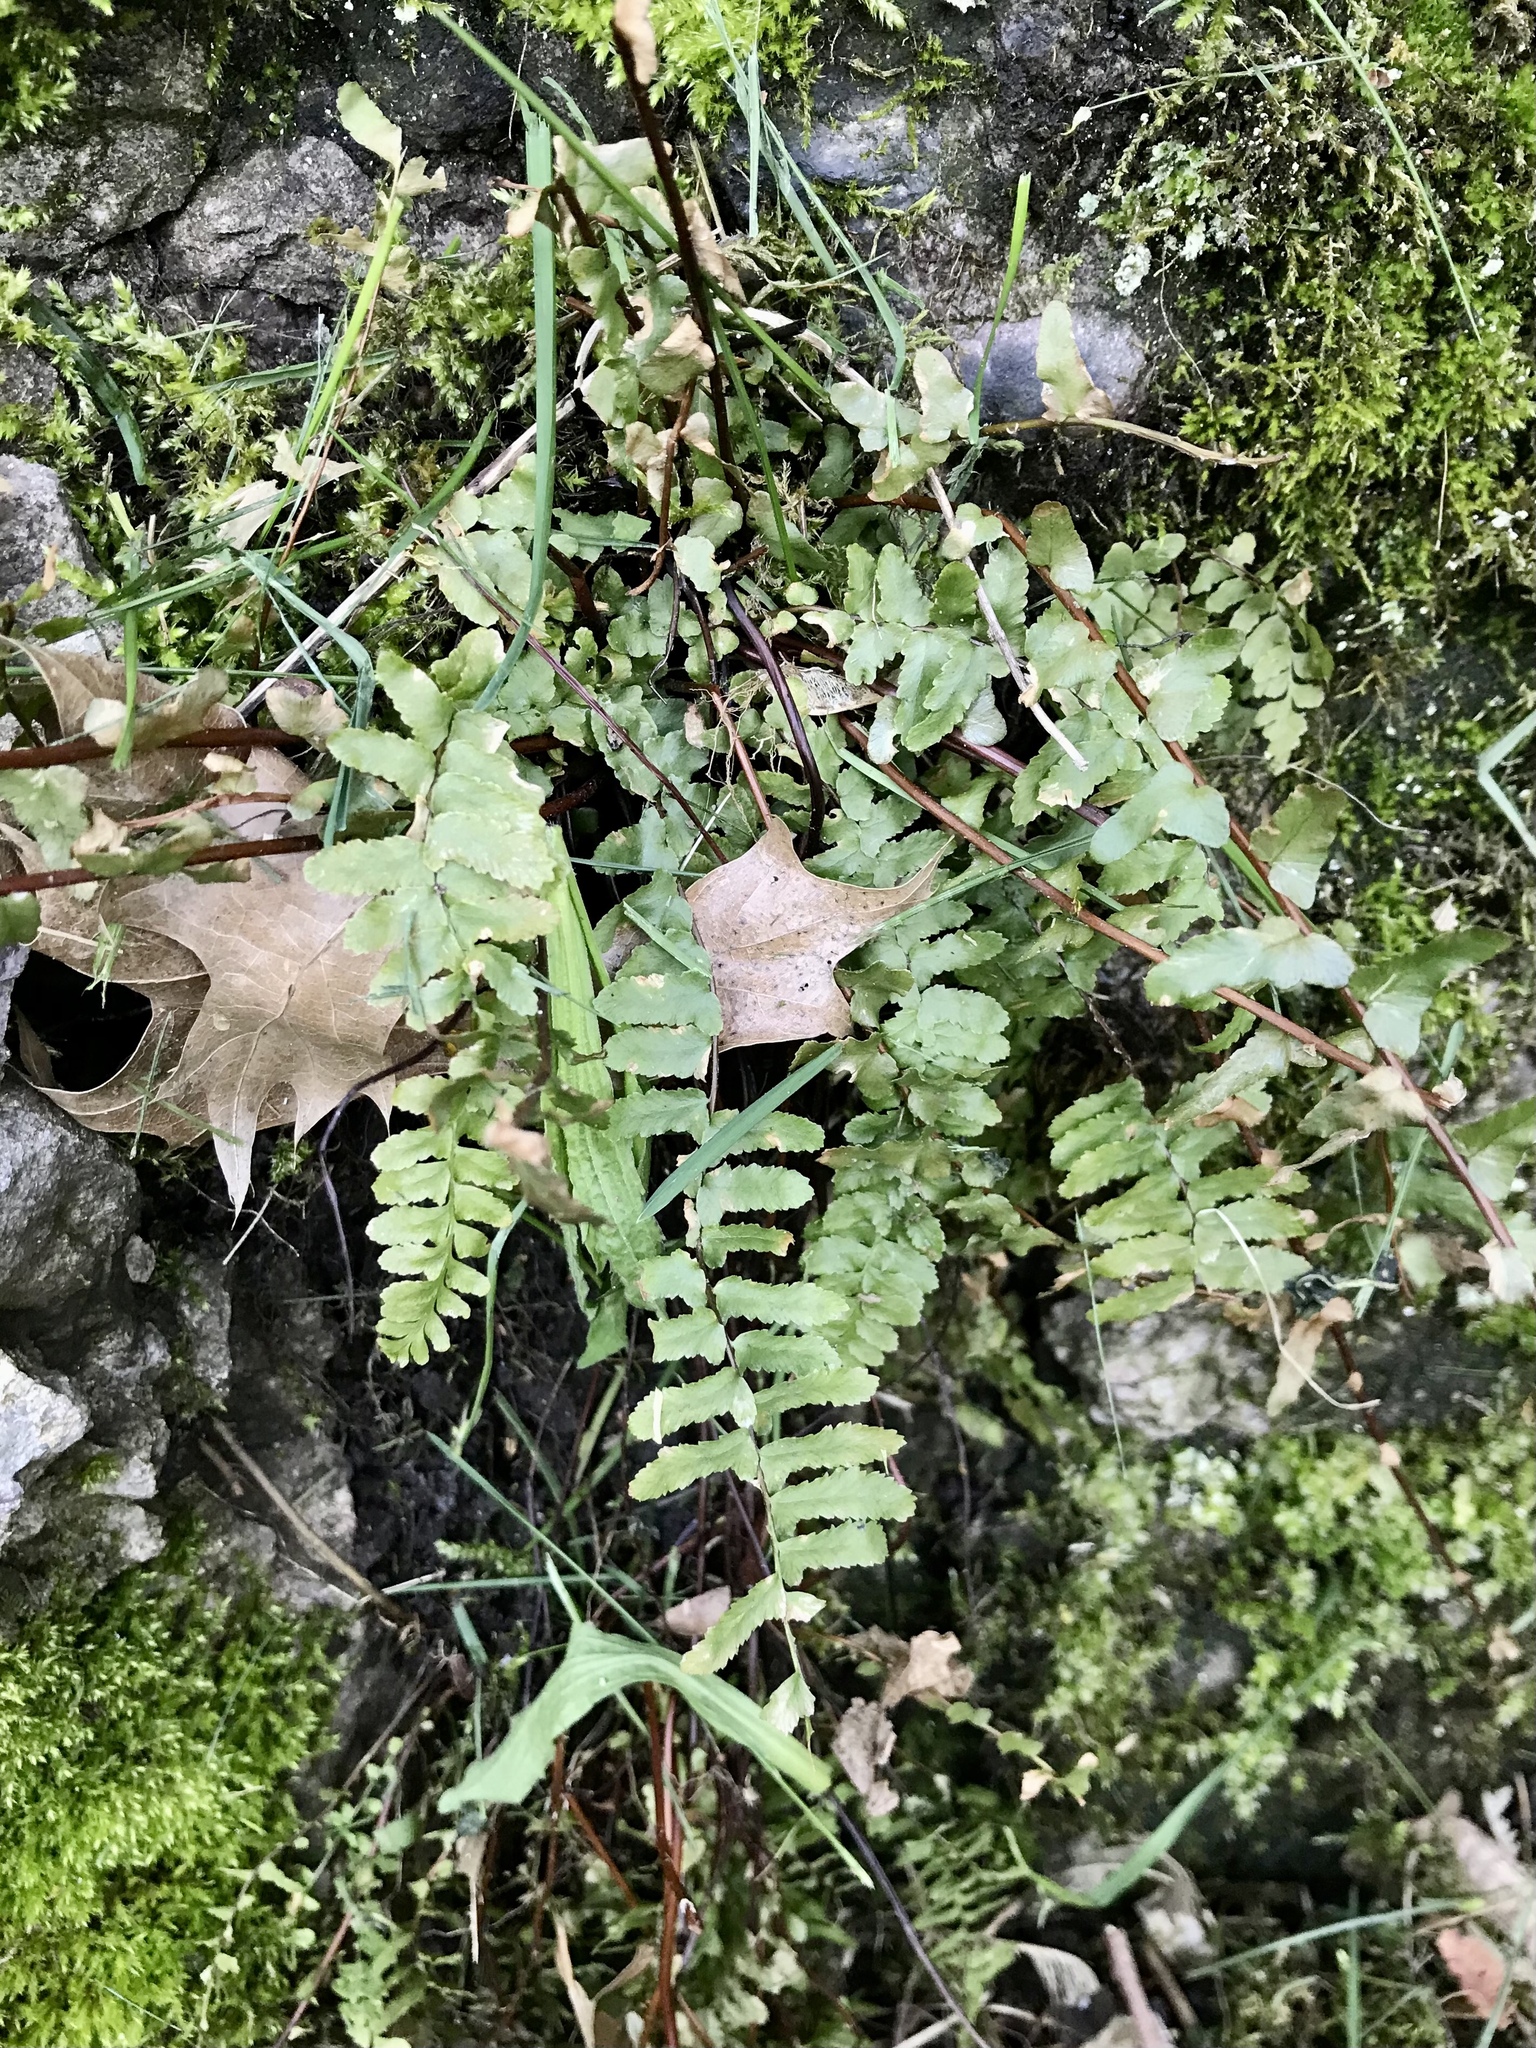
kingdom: Plantae
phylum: Tracheophyta
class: Polypodiopsida
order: Polypodiales
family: Aspleniaceae
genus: Asplenium
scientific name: Asplenium platyneuron
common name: Ebony spleenwort
